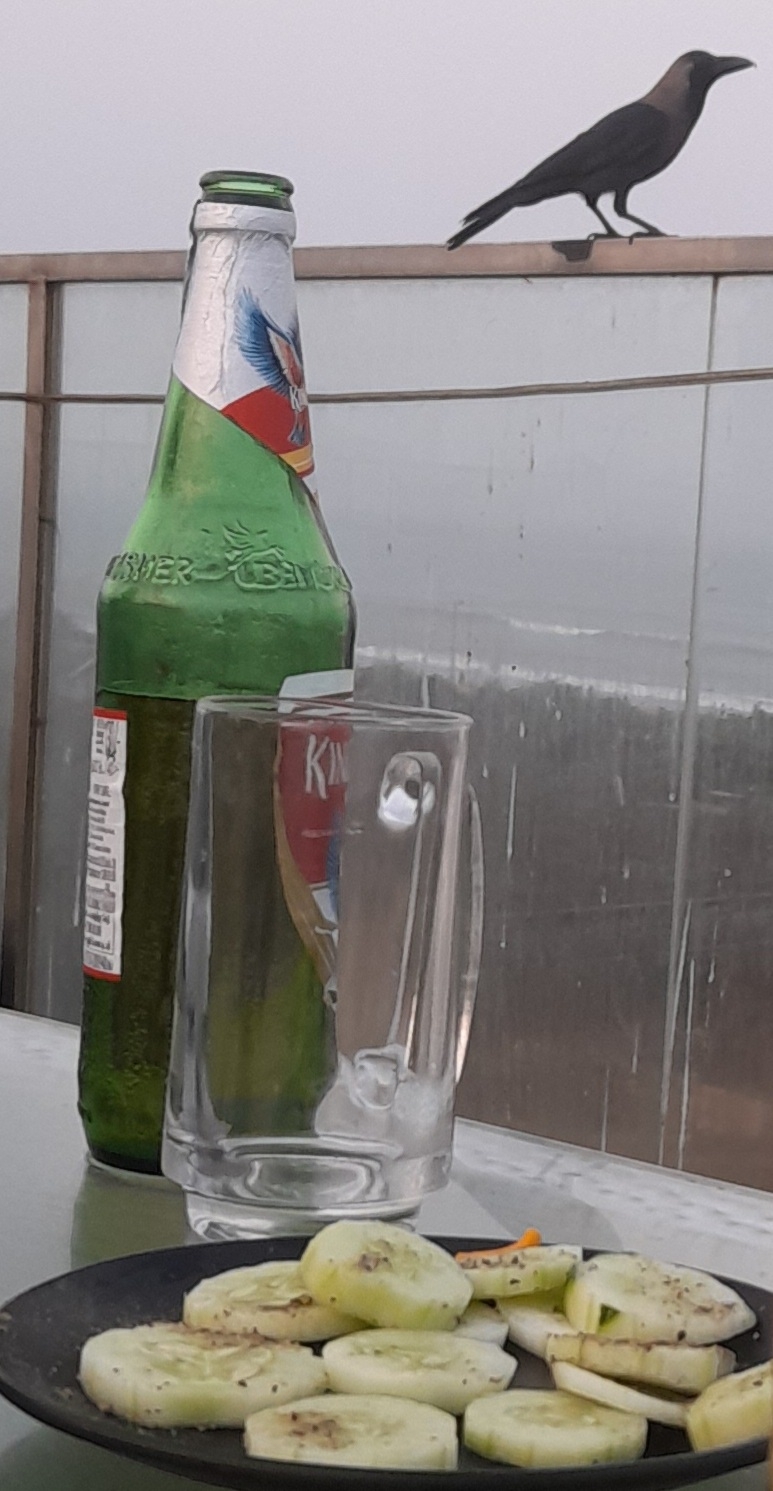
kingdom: Animalia
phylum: Chordata
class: Aves
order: Passeriformes
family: Corvidae
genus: Corvus
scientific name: Corvus splendens
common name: House crow
